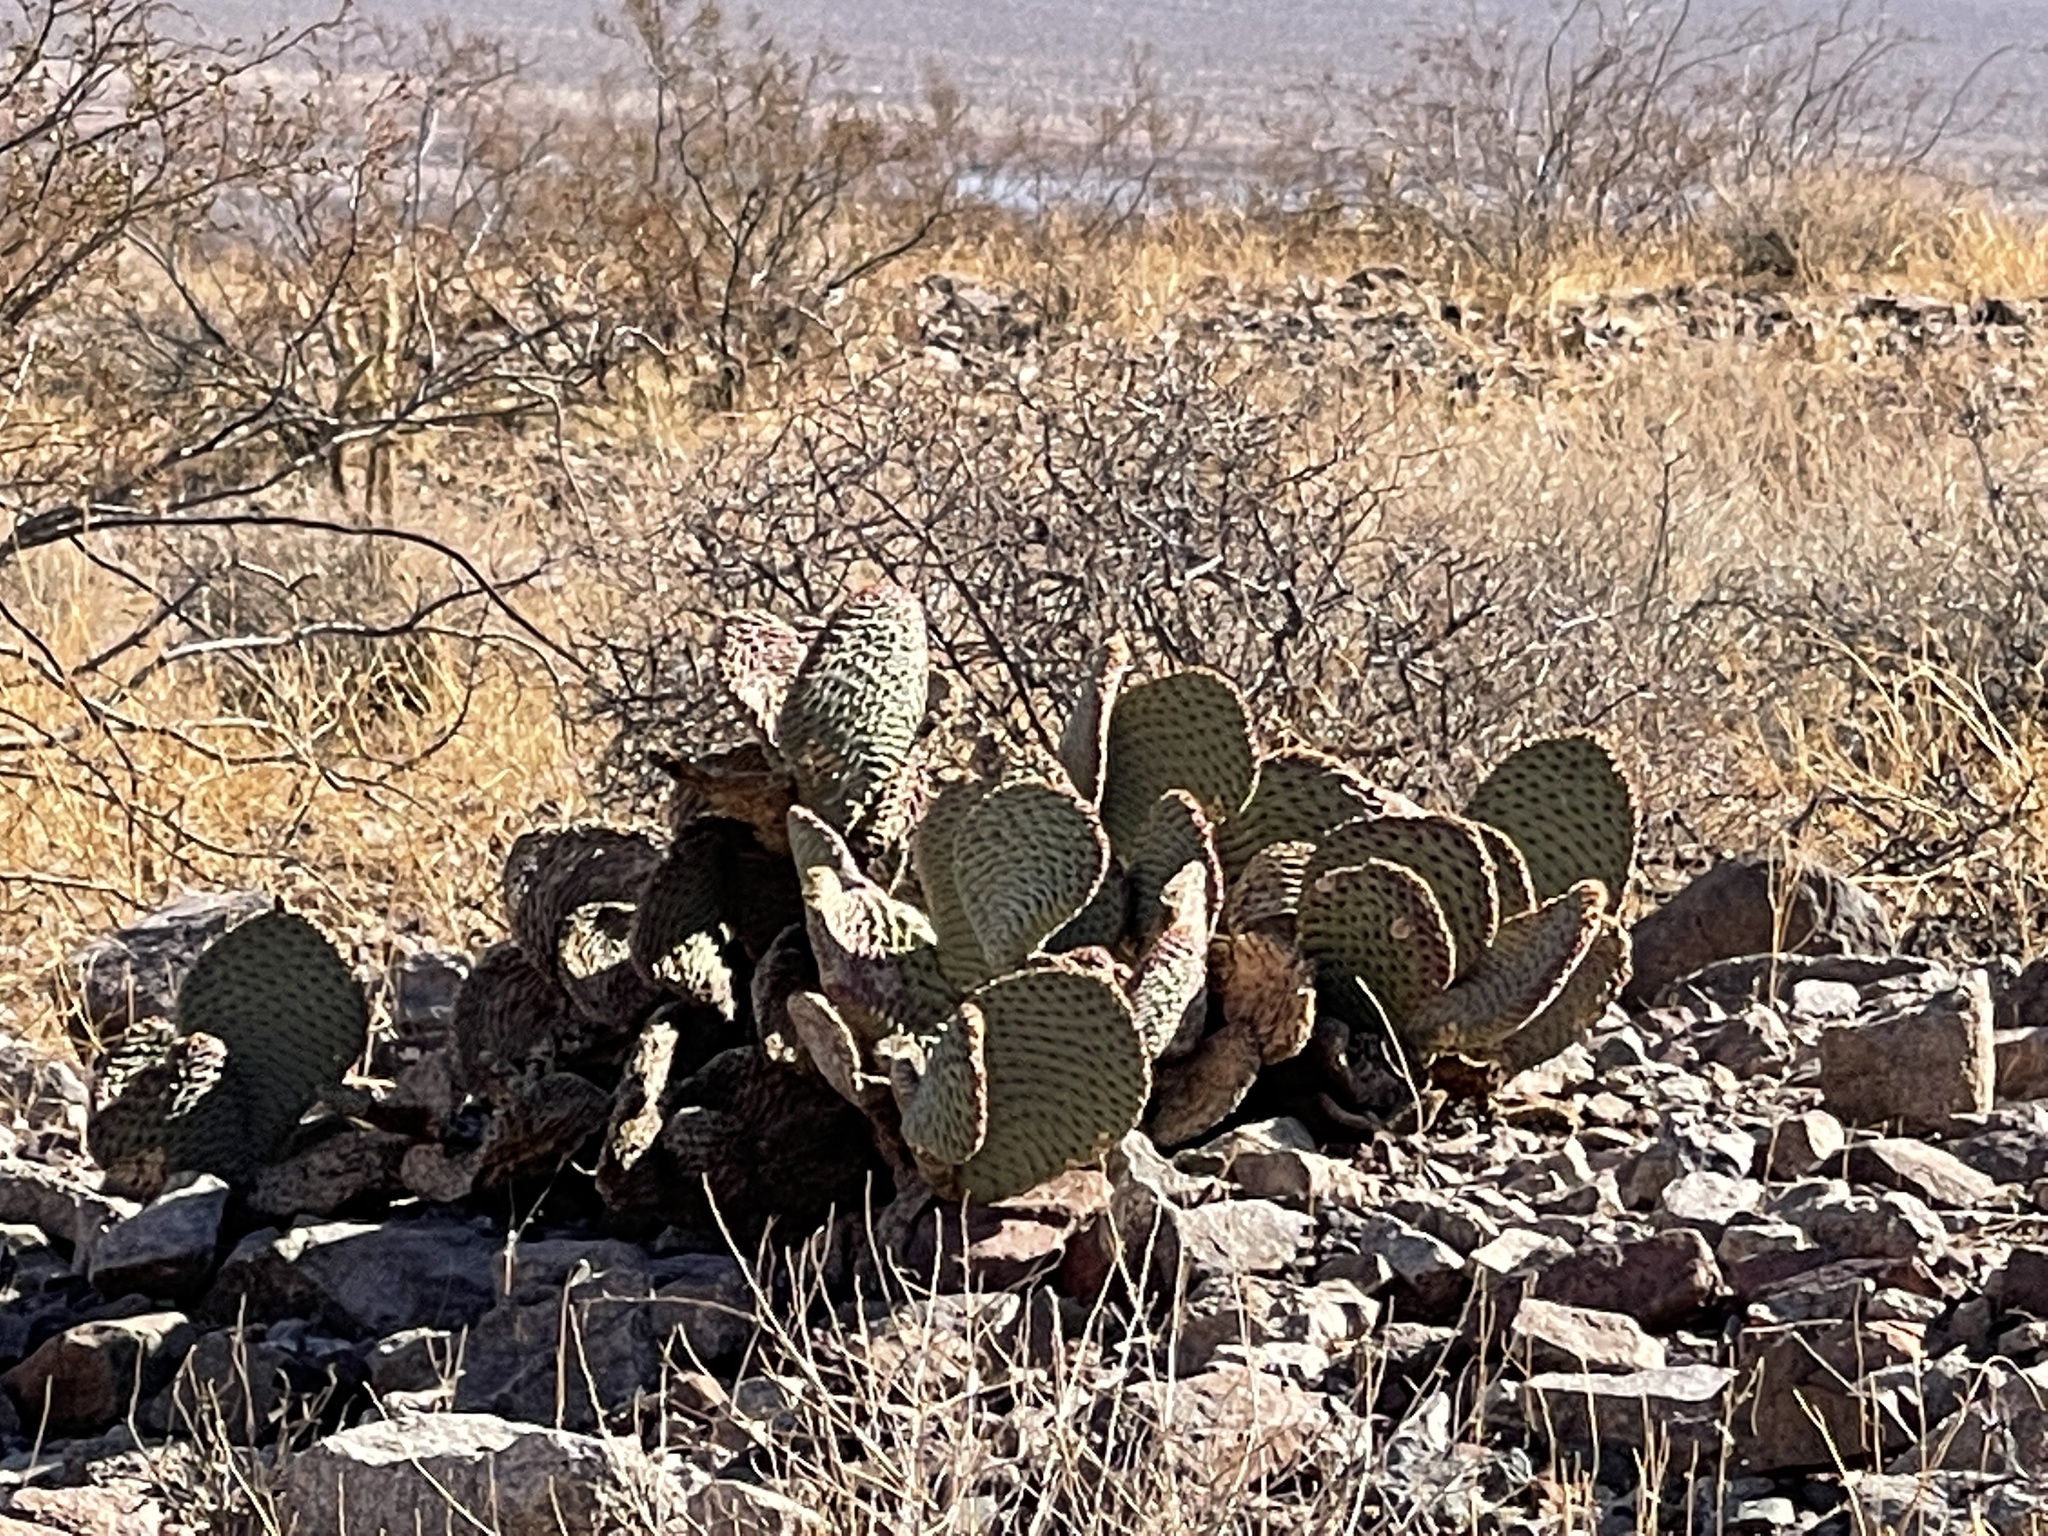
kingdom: Plantae
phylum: Tracheophyta
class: Magnoliopsida
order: Caryophyllales
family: Cactaceae
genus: Opuntia
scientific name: Opuntia basilaris
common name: Beavertail prickly-pear
